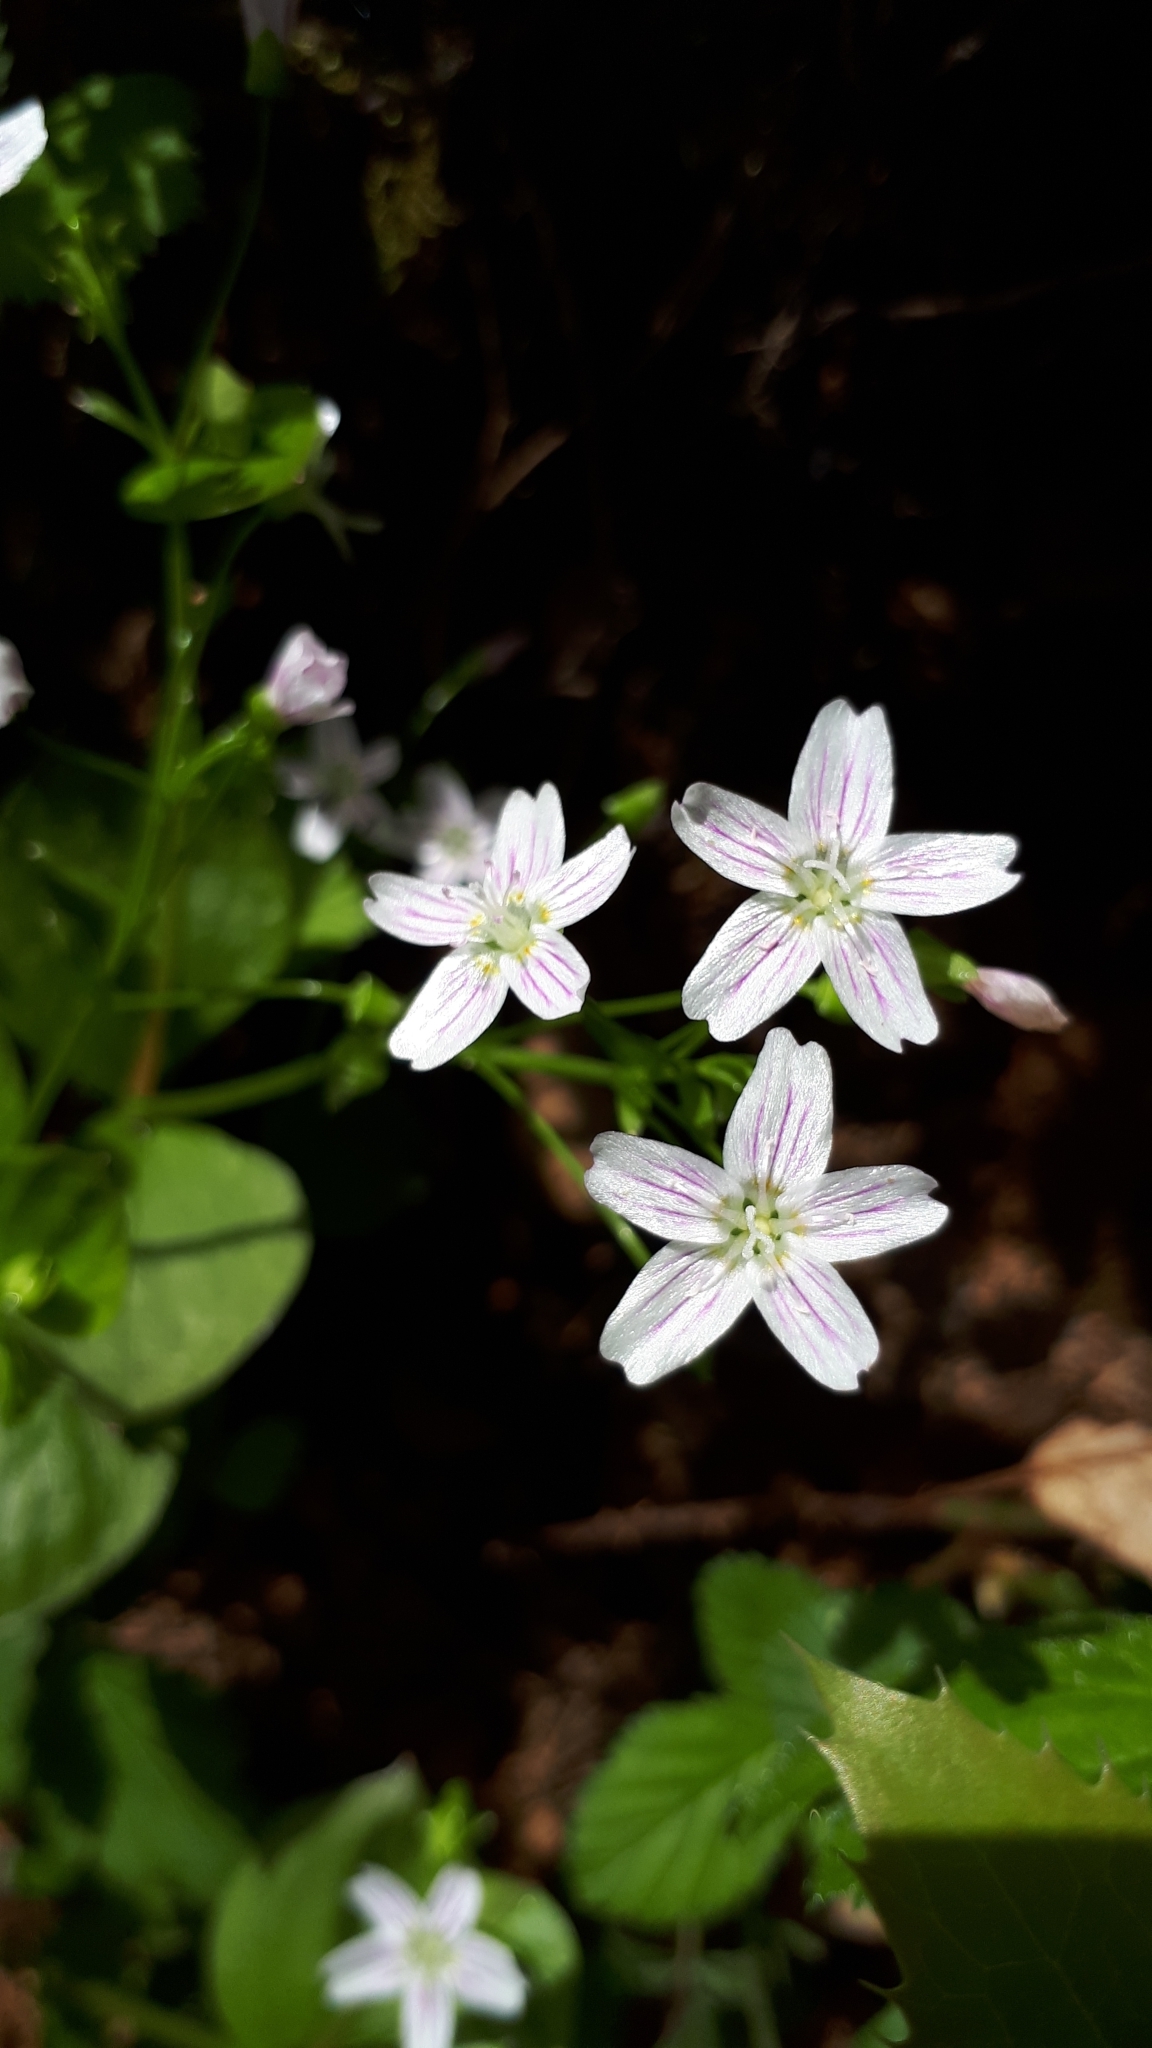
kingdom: Plantae
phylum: Tracheophyta
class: Magnoliopsida
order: Caryophyllales
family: Montiaceae
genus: Claytonia
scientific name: Claytonia sibirica
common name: Pink purslane
